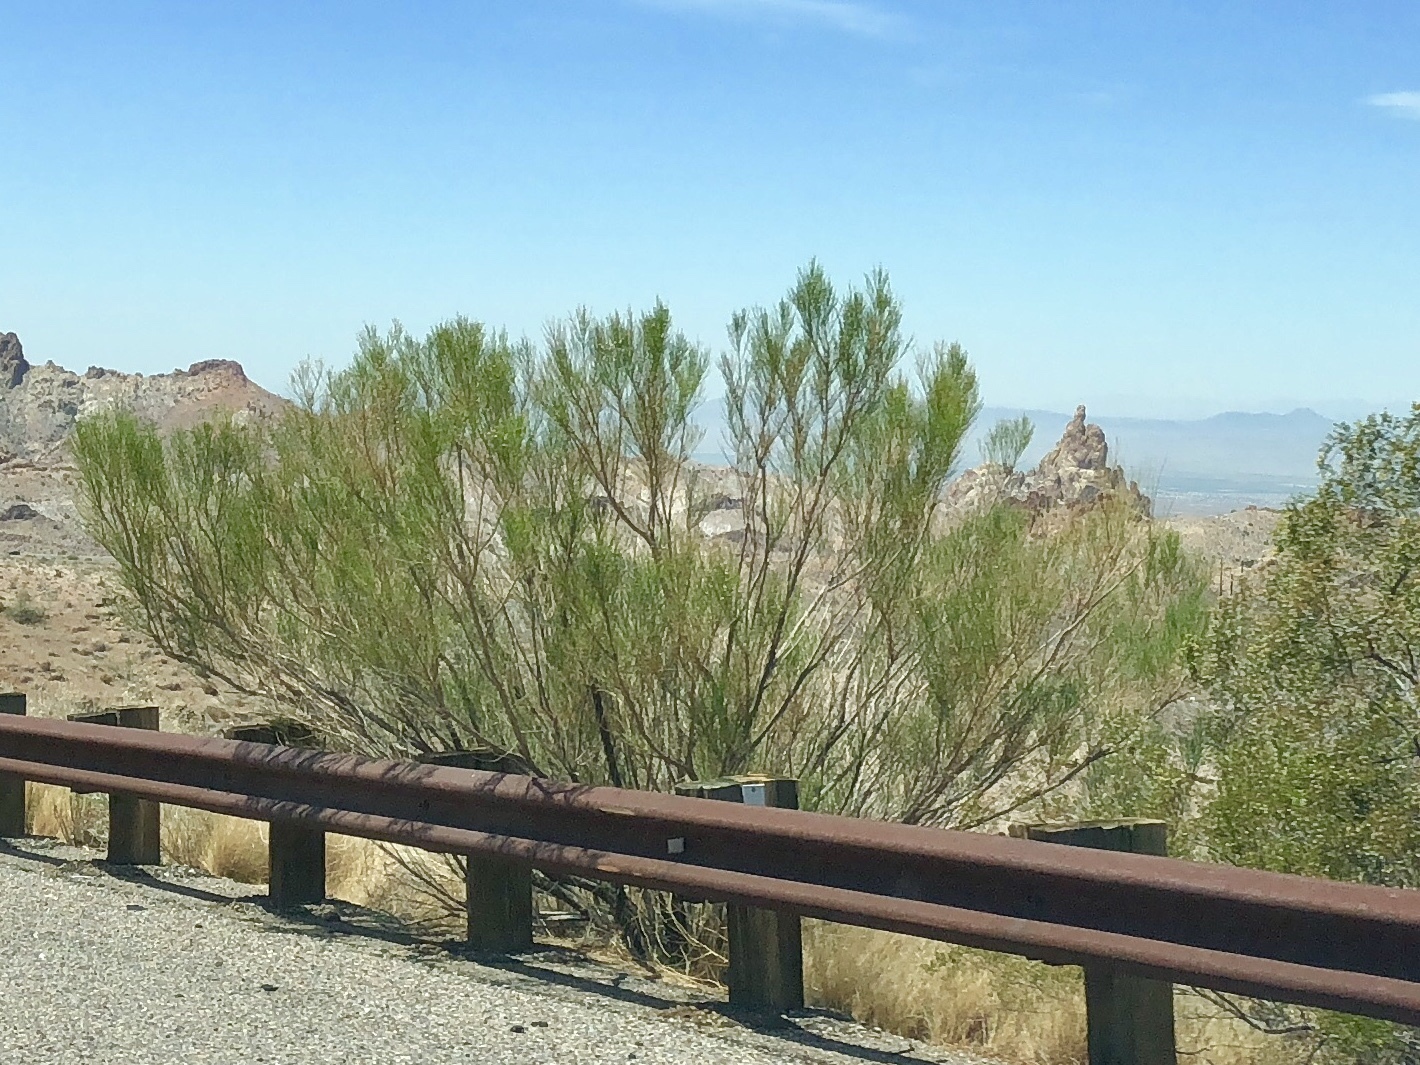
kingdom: Plantae
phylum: Tracheophyta
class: Magnoliopsida
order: Asterales
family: Asteraceae
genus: Baccharis
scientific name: Baccharis sarothroides
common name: Desert-broom
